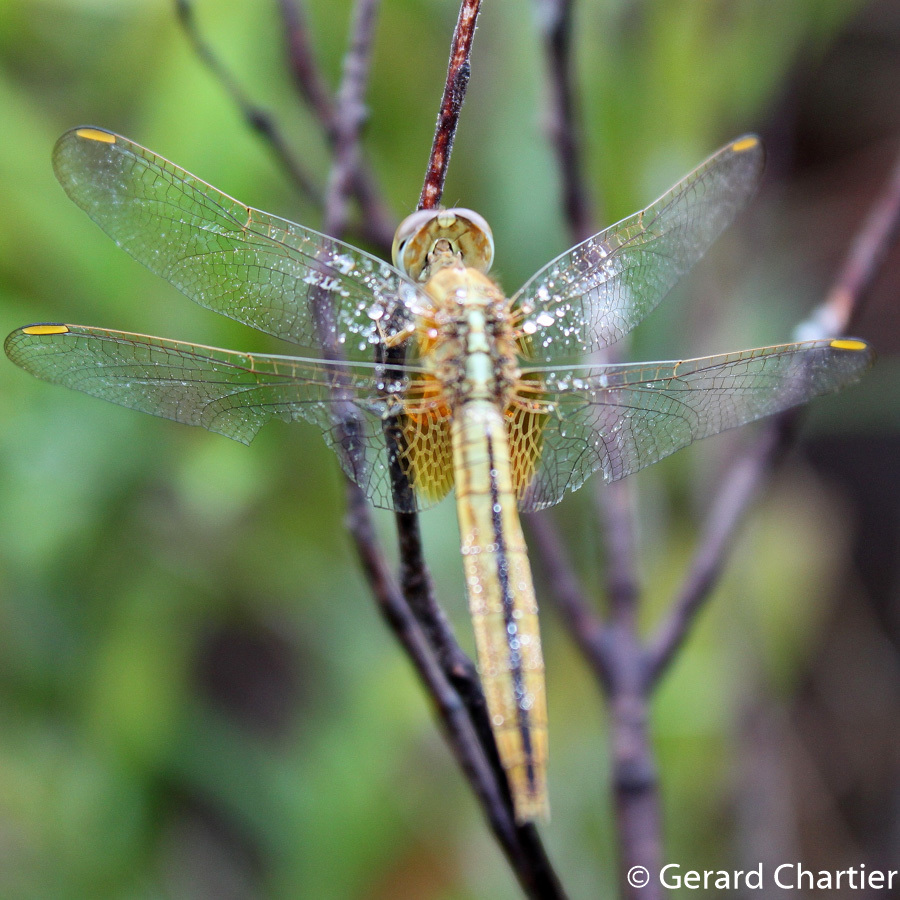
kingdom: Animalia
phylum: Arthropoda
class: Insecta
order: Odonata
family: Libellulidae
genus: Crocothemis
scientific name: Crocothemis servilia
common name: Scarlet skimmer
